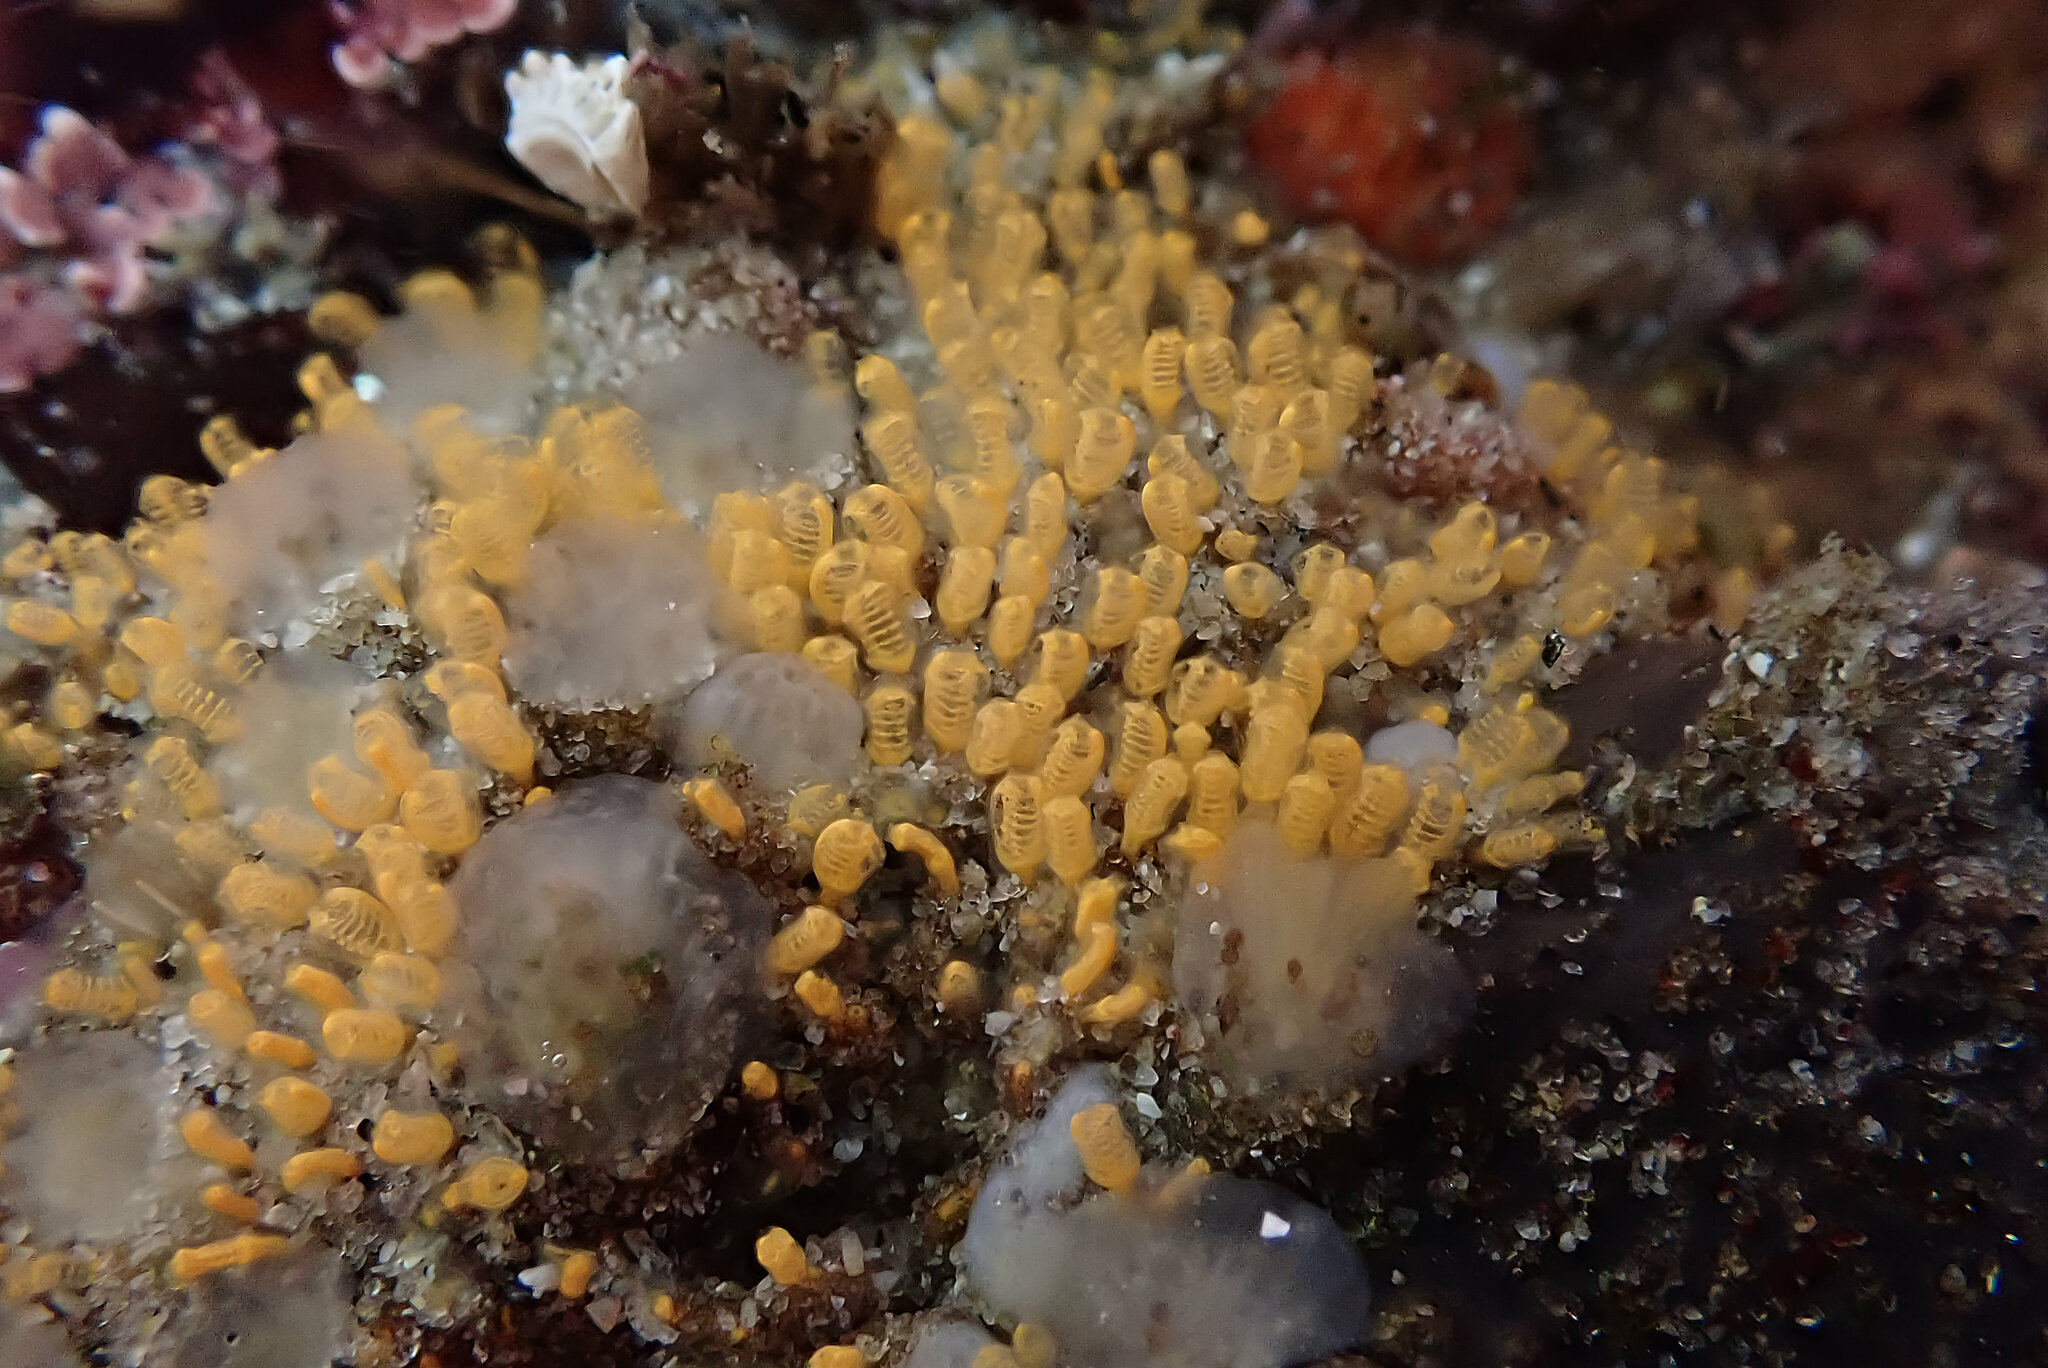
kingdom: Animalia
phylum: Chordata
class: Ascidiacea
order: Aplousobranchia
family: Clavelinidae
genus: Pycnoclavella
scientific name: Pycnoclavella stanleyi
